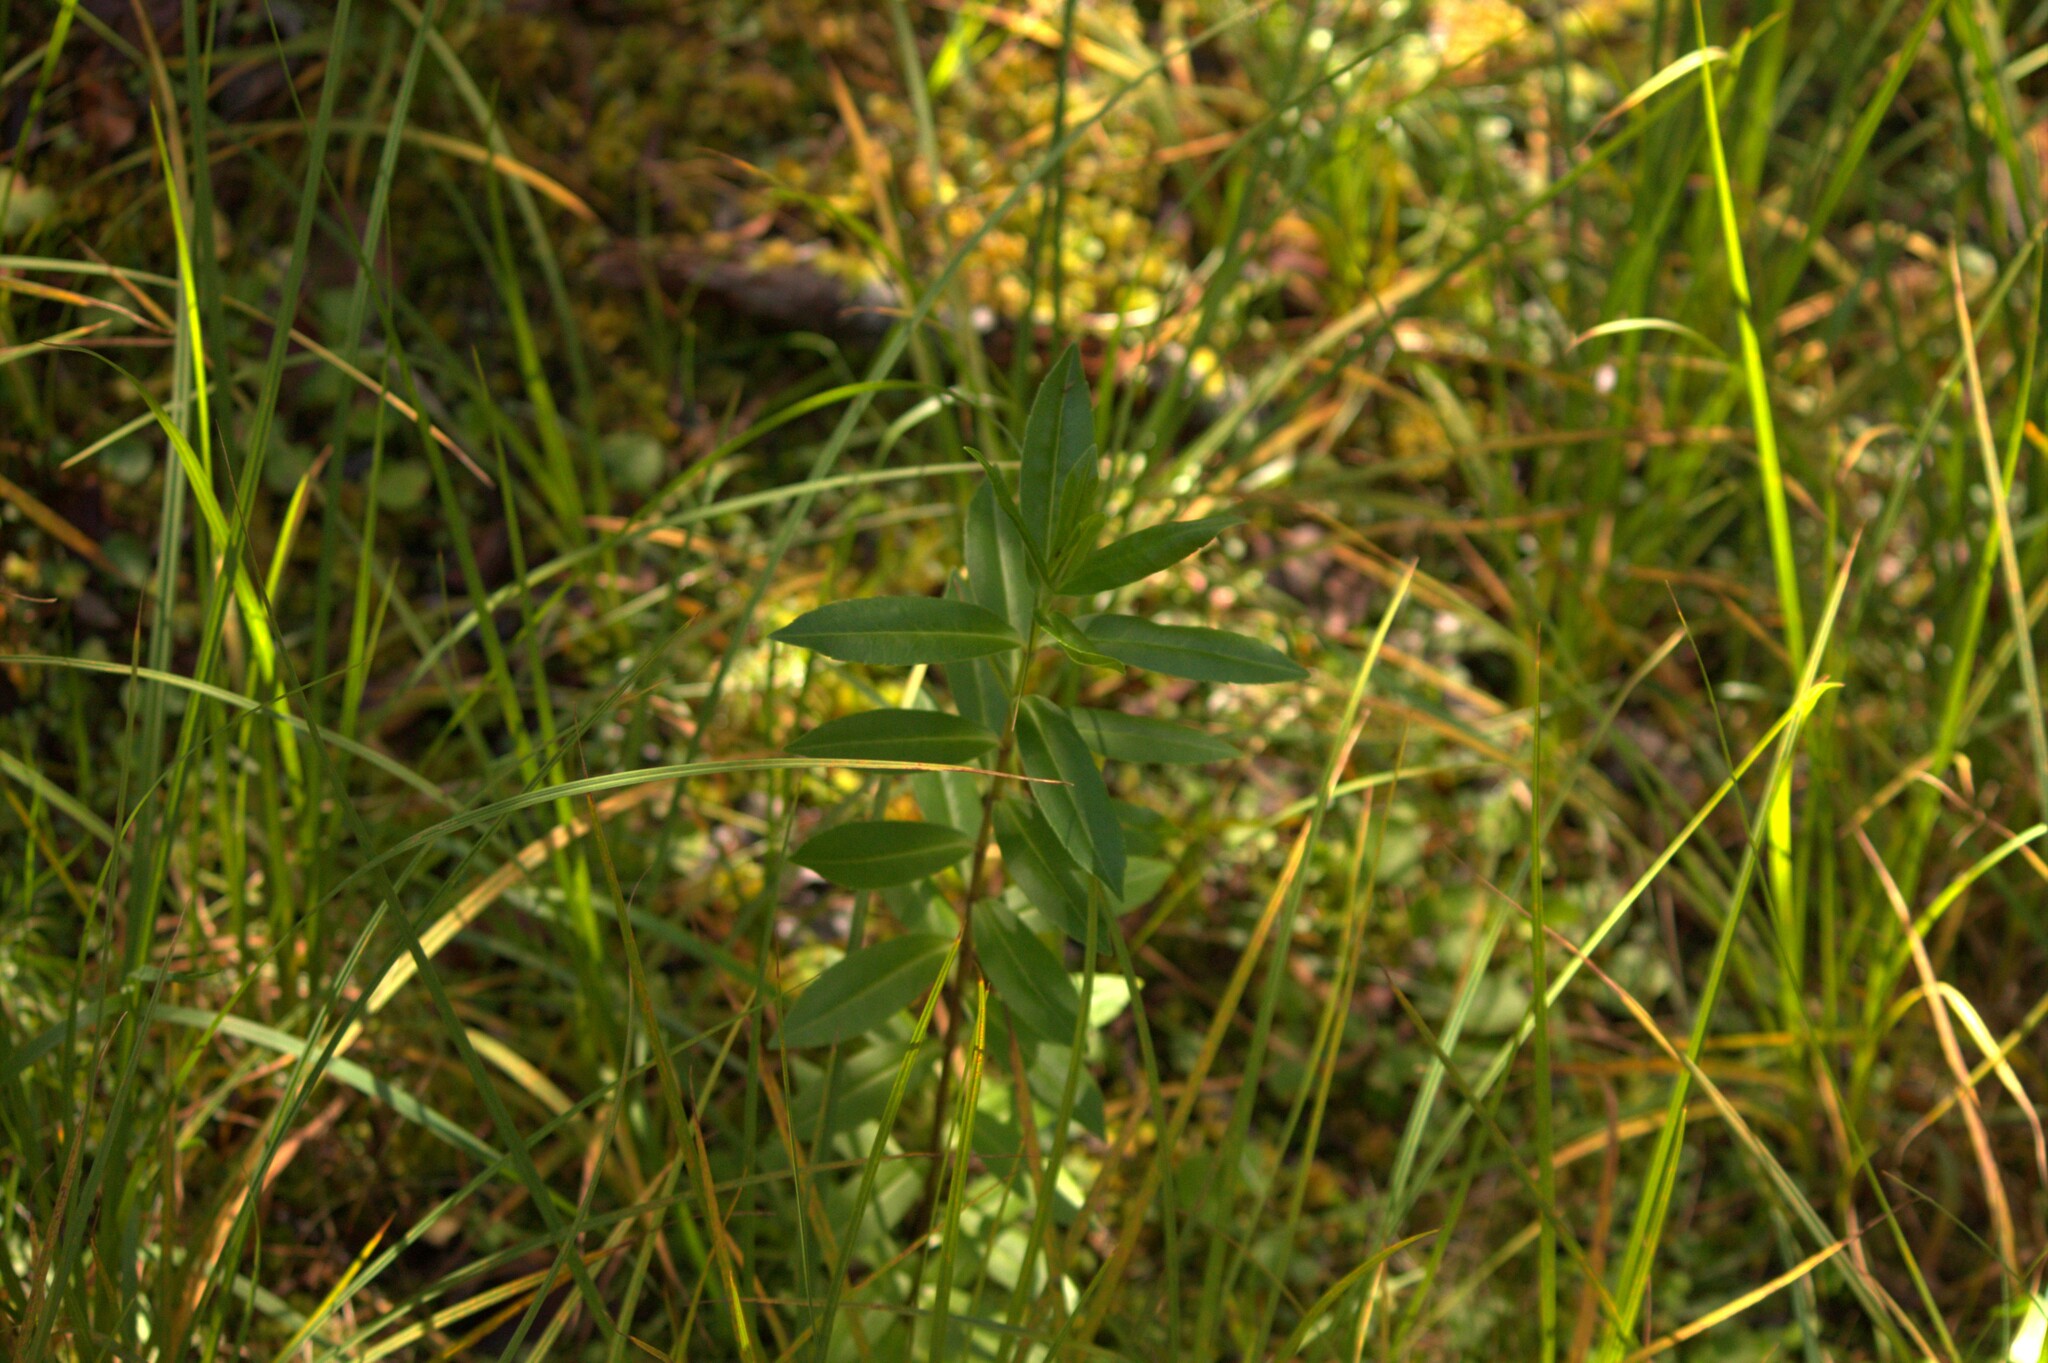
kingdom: Plantae
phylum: Tracheophyta
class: Magnoliopsida
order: Lamiales
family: Plantaginaceae
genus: Veronica
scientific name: Veronica salicifolia
